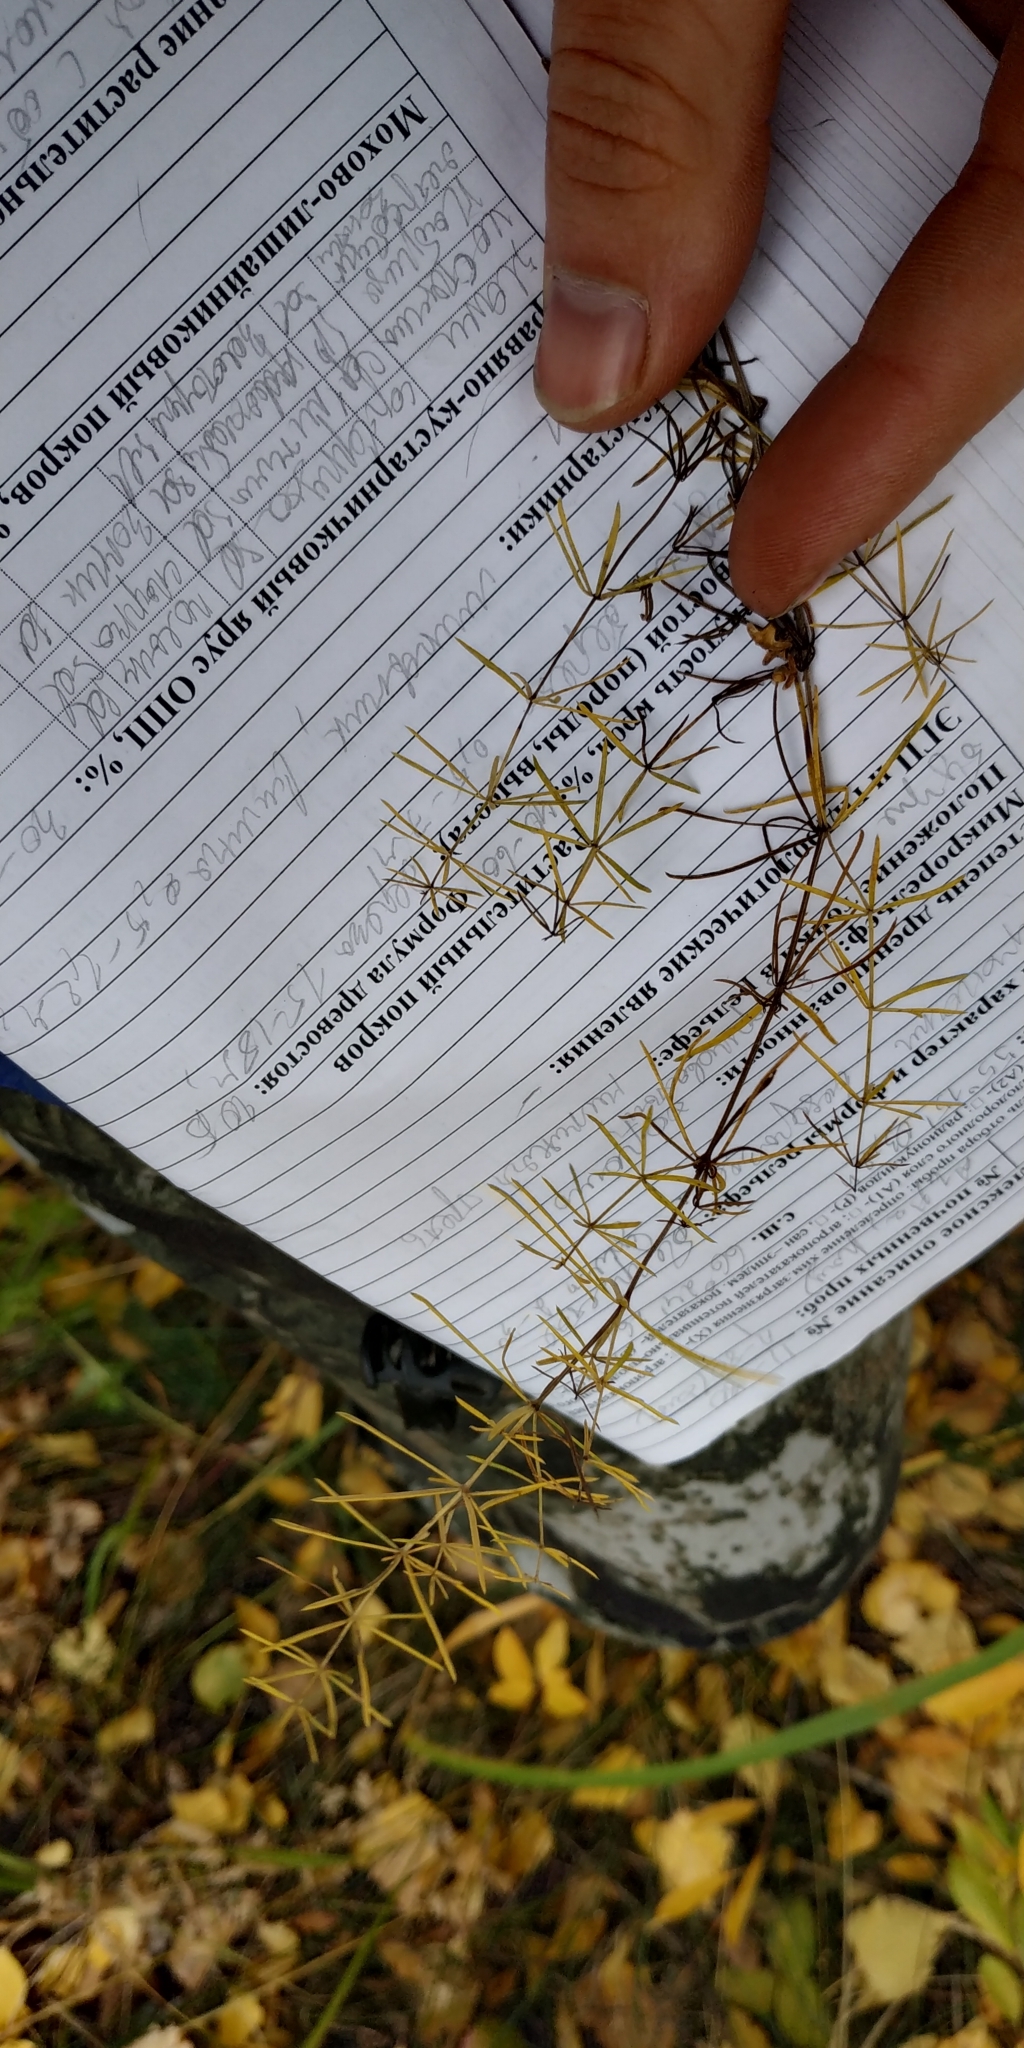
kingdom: Plantae
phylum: Tracheophyta
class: Magnoliopsida
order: Gentianales
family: Rubiaceae
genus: Galium
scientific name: Galium verum
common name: Lady's bedstraw
